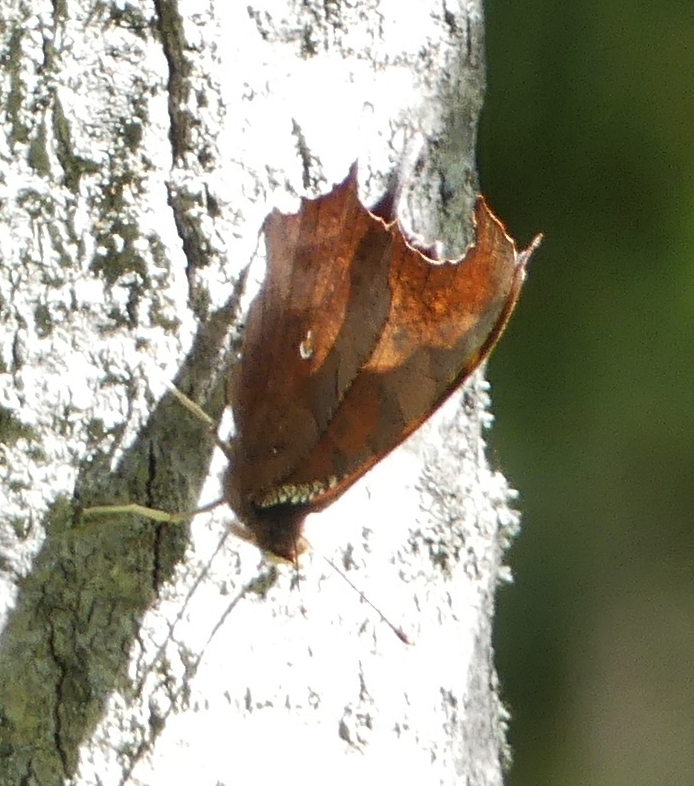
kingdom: Animalia
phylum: Arthropoda
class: Insecta
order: Lepidoptera
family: Nymphalidae
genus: Polygonia
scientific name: Polygonia interrogationis
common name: Question mark
